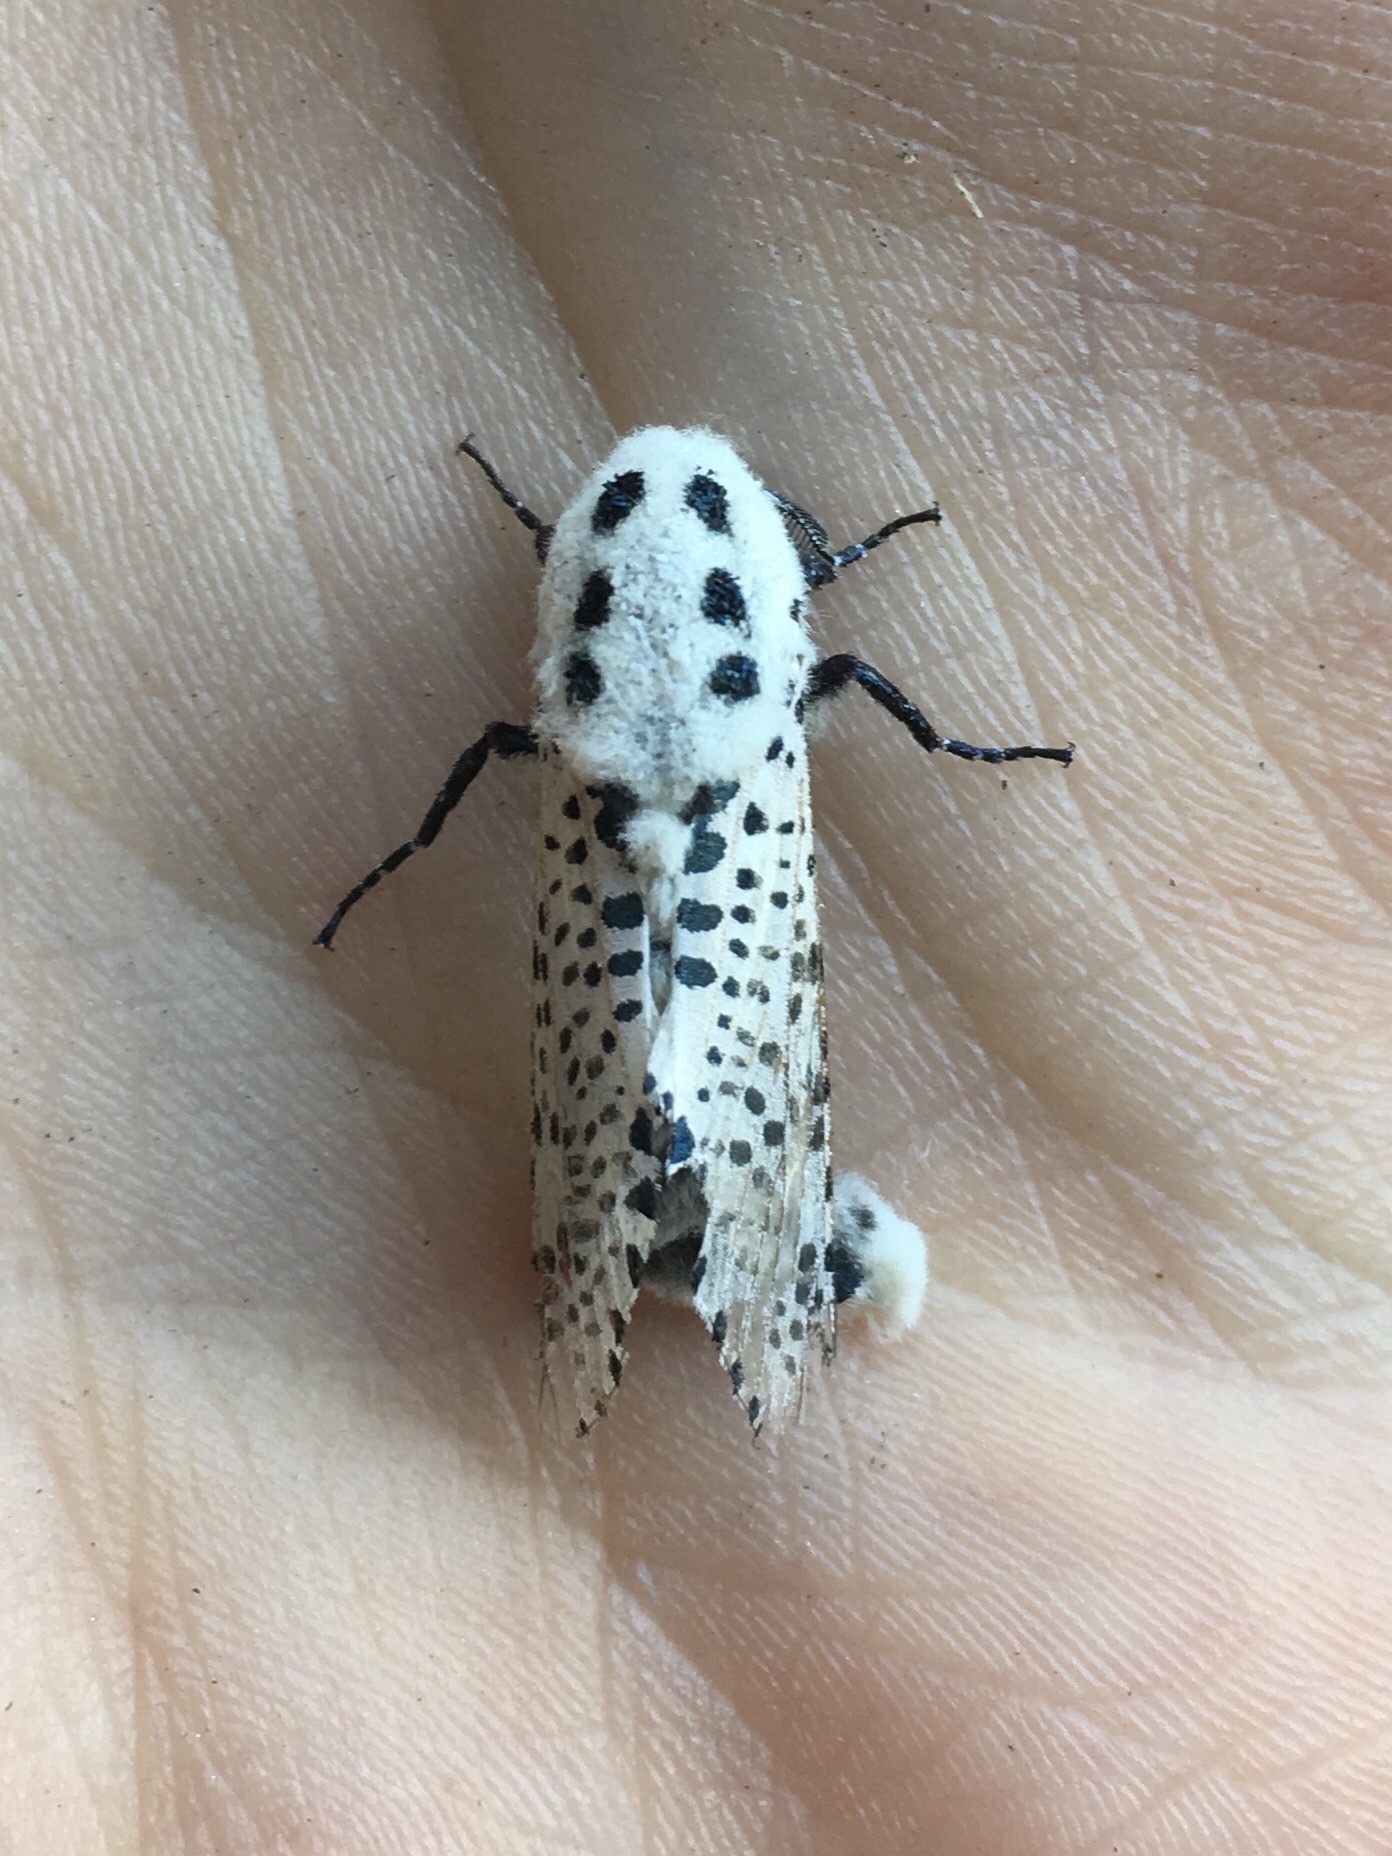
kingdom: Animalia
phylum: Arthropoda
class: Insecta
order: Lepidoptera
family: Cossidae
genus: Zeuzera
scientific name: Zeuzera pyrina
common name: Leopard moth
